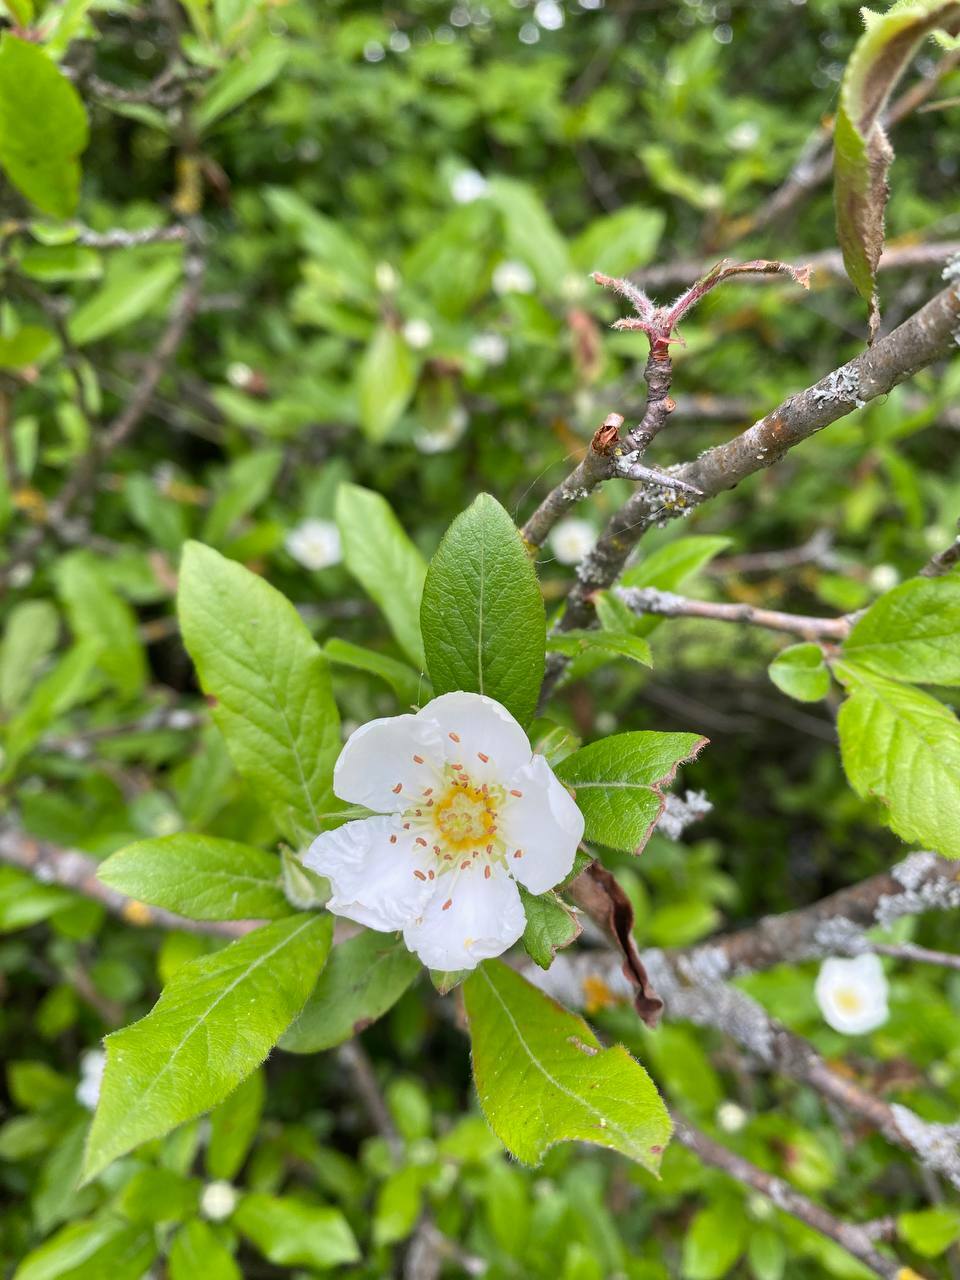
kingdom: Plantae
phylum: Tracheophyta
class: Magnoliopsida
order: Rosales
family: Rosaceae
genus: Mespilus
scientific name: Mespilus germanica
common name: Medlar
